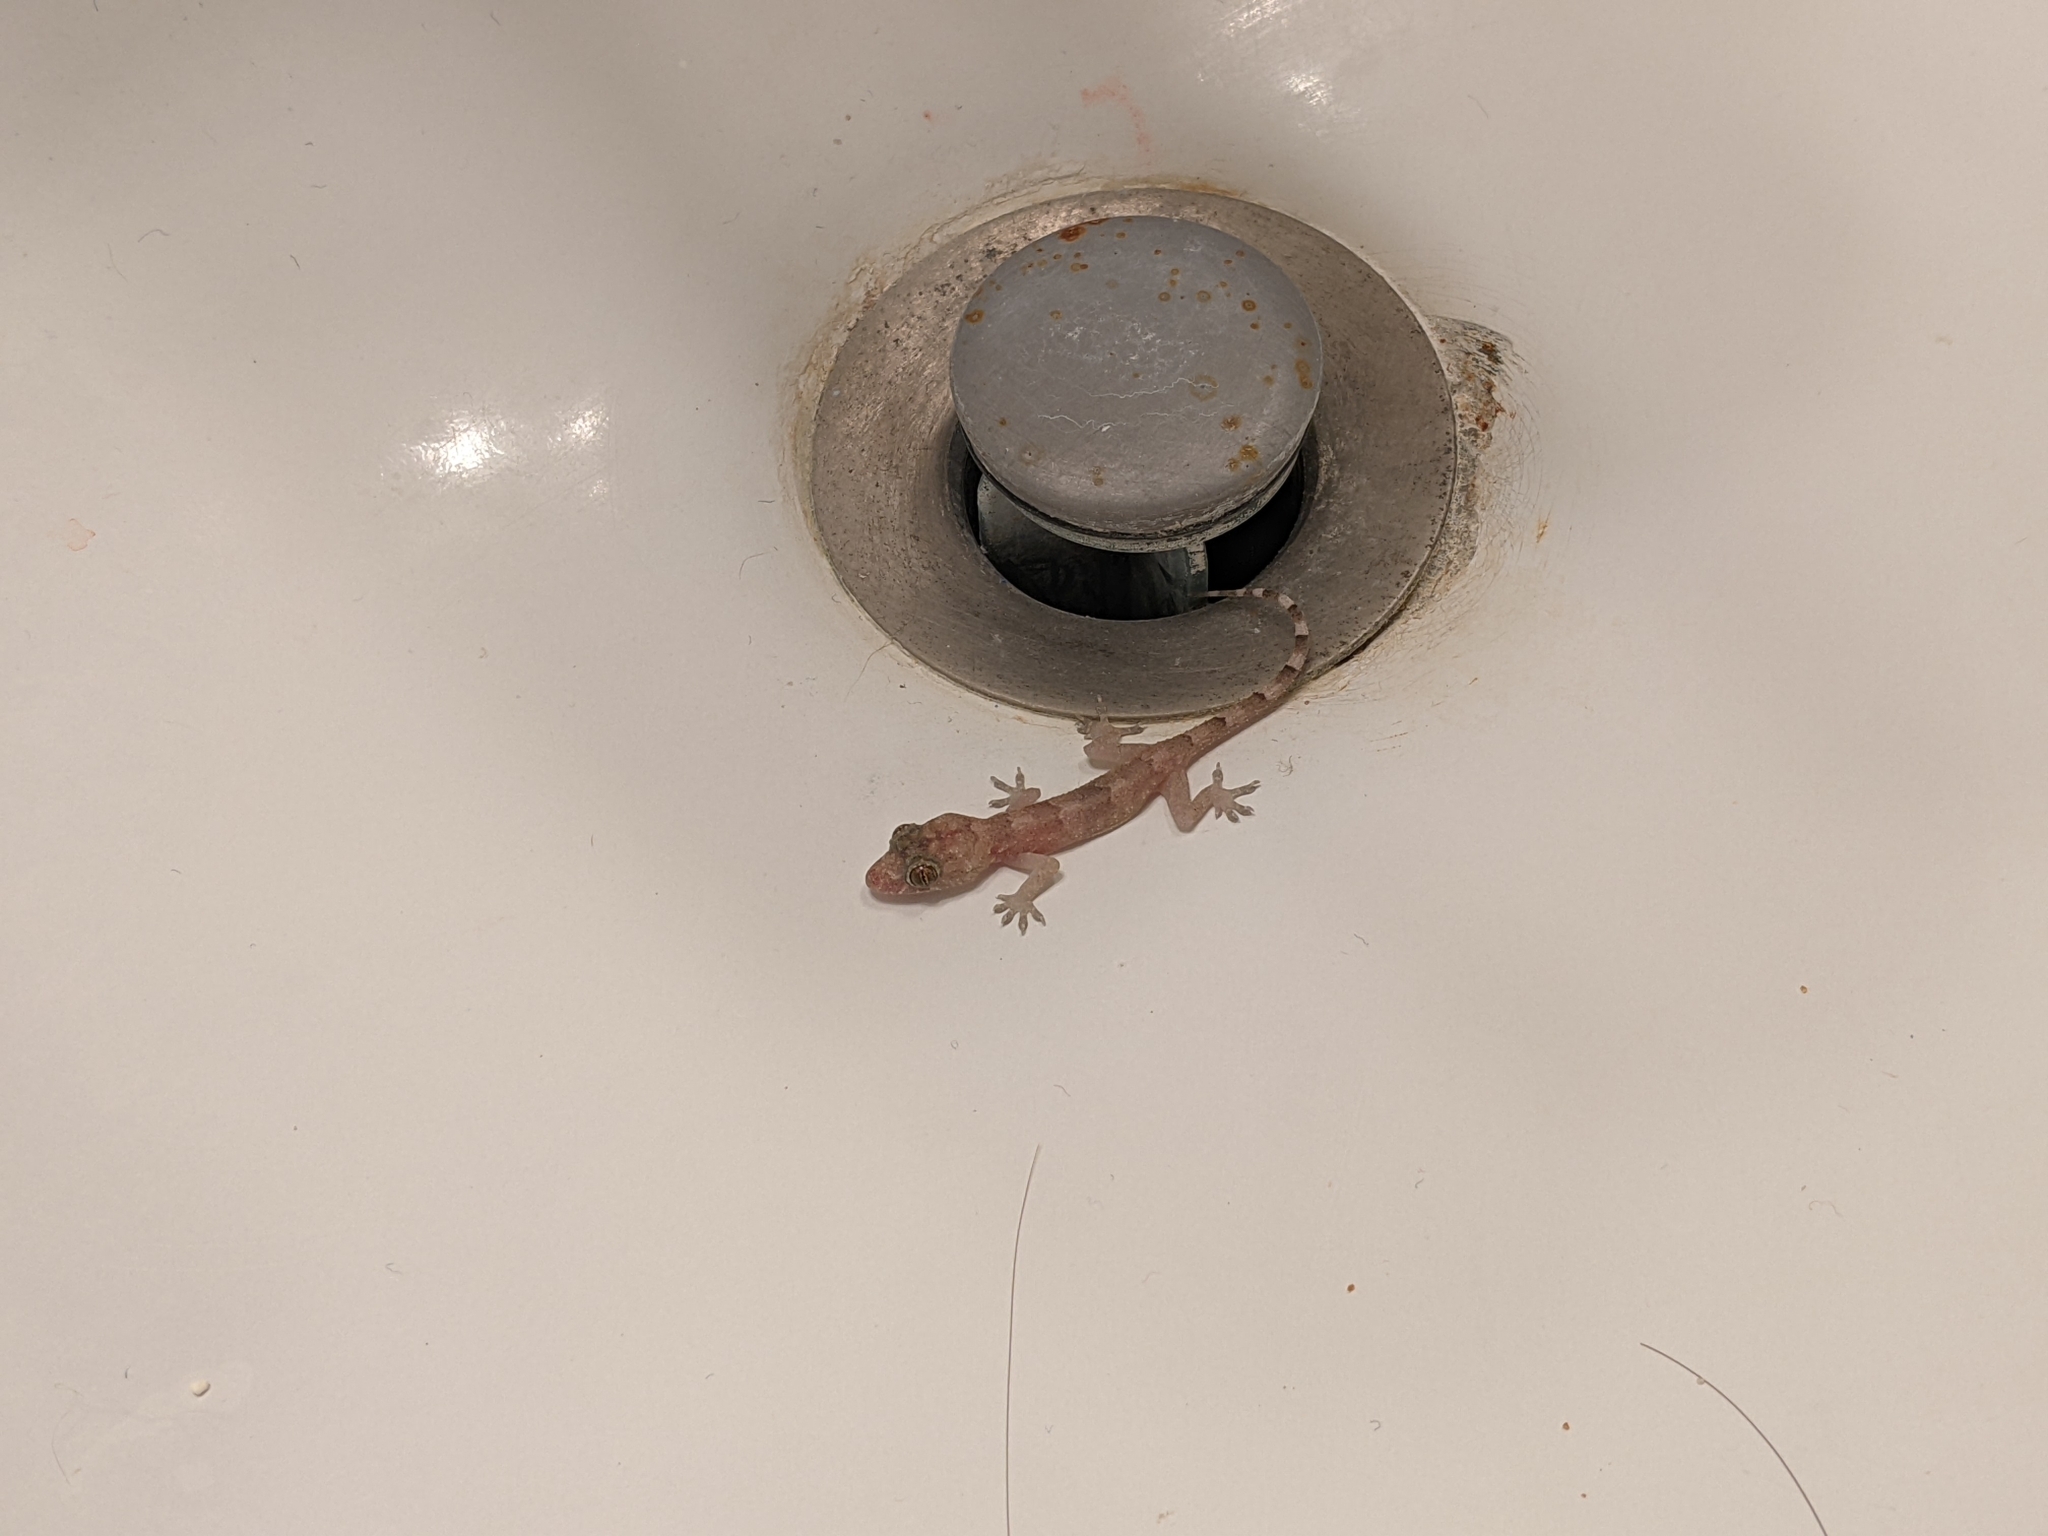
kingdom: Animalia
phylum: Chordata
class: Squamata
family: Gekkonidae
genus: Hemidactylus
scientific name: Hemidactylus mabouia
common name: House gecko
